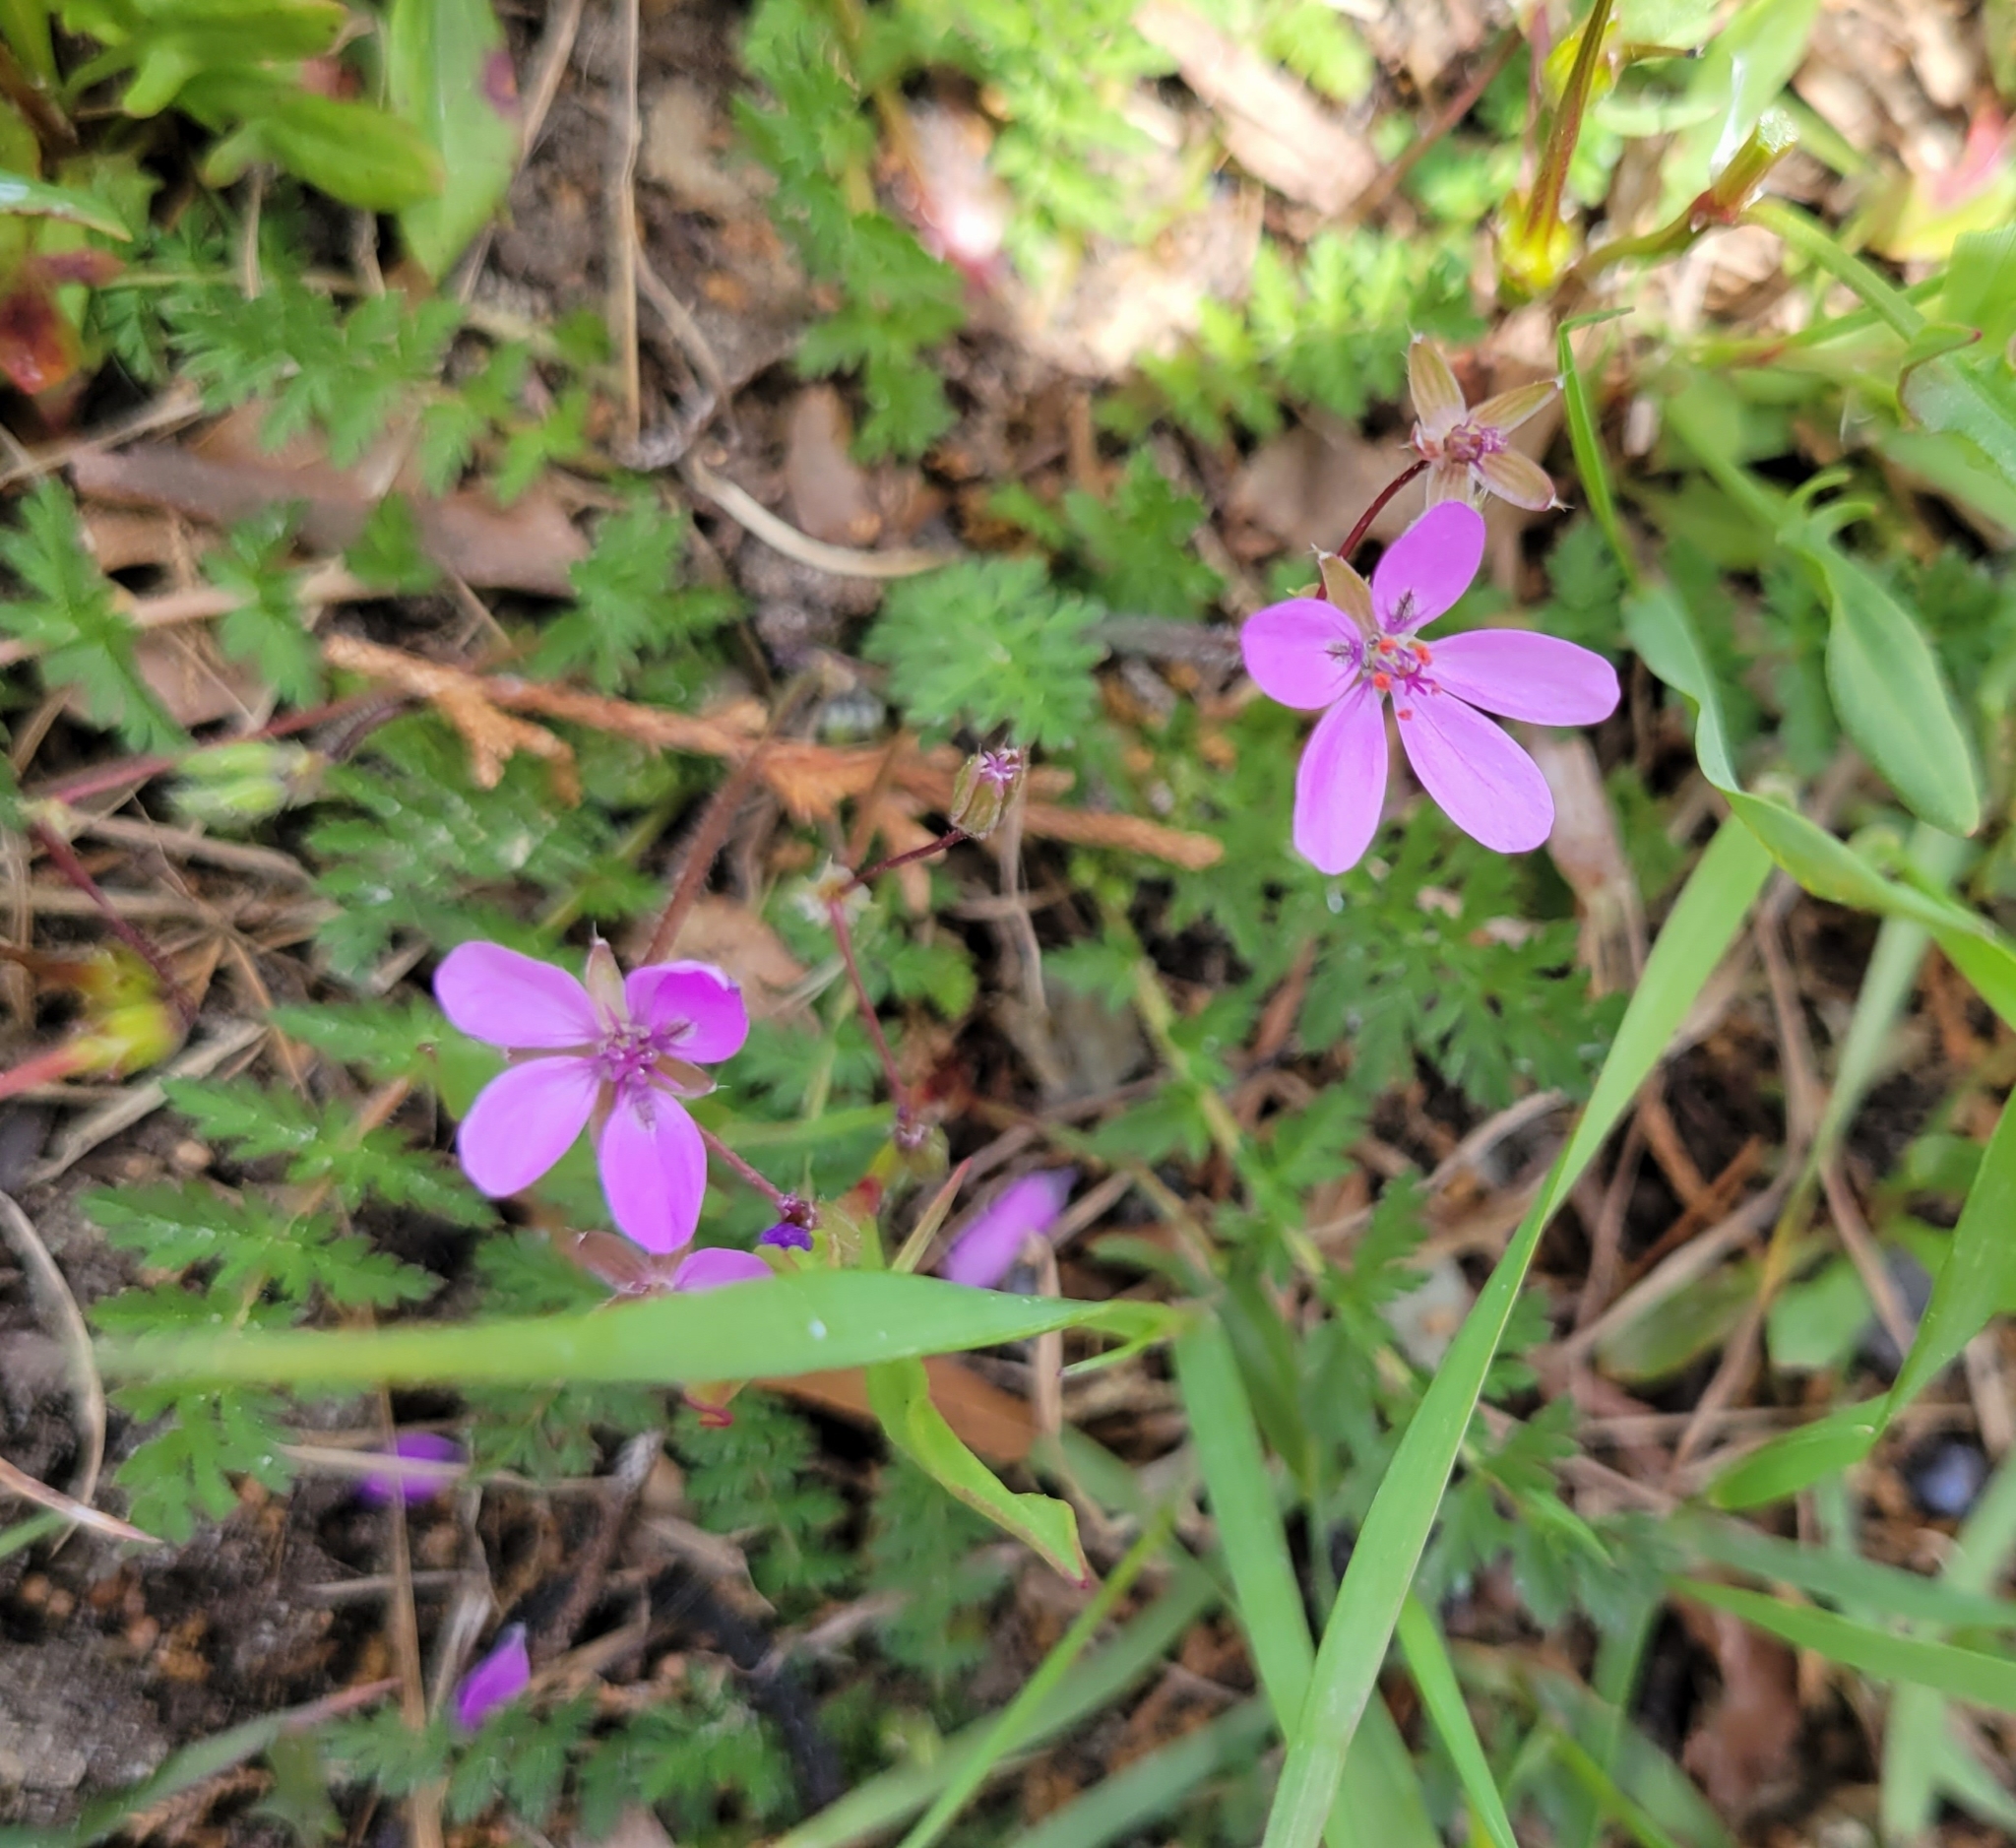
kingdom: Plantae
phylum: Tracheophyta
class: Magnoliopsida
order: Geraniales
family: Geraniaceae
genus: Erodium
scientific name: Erodium cicutarium
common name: Common stork's-bill
